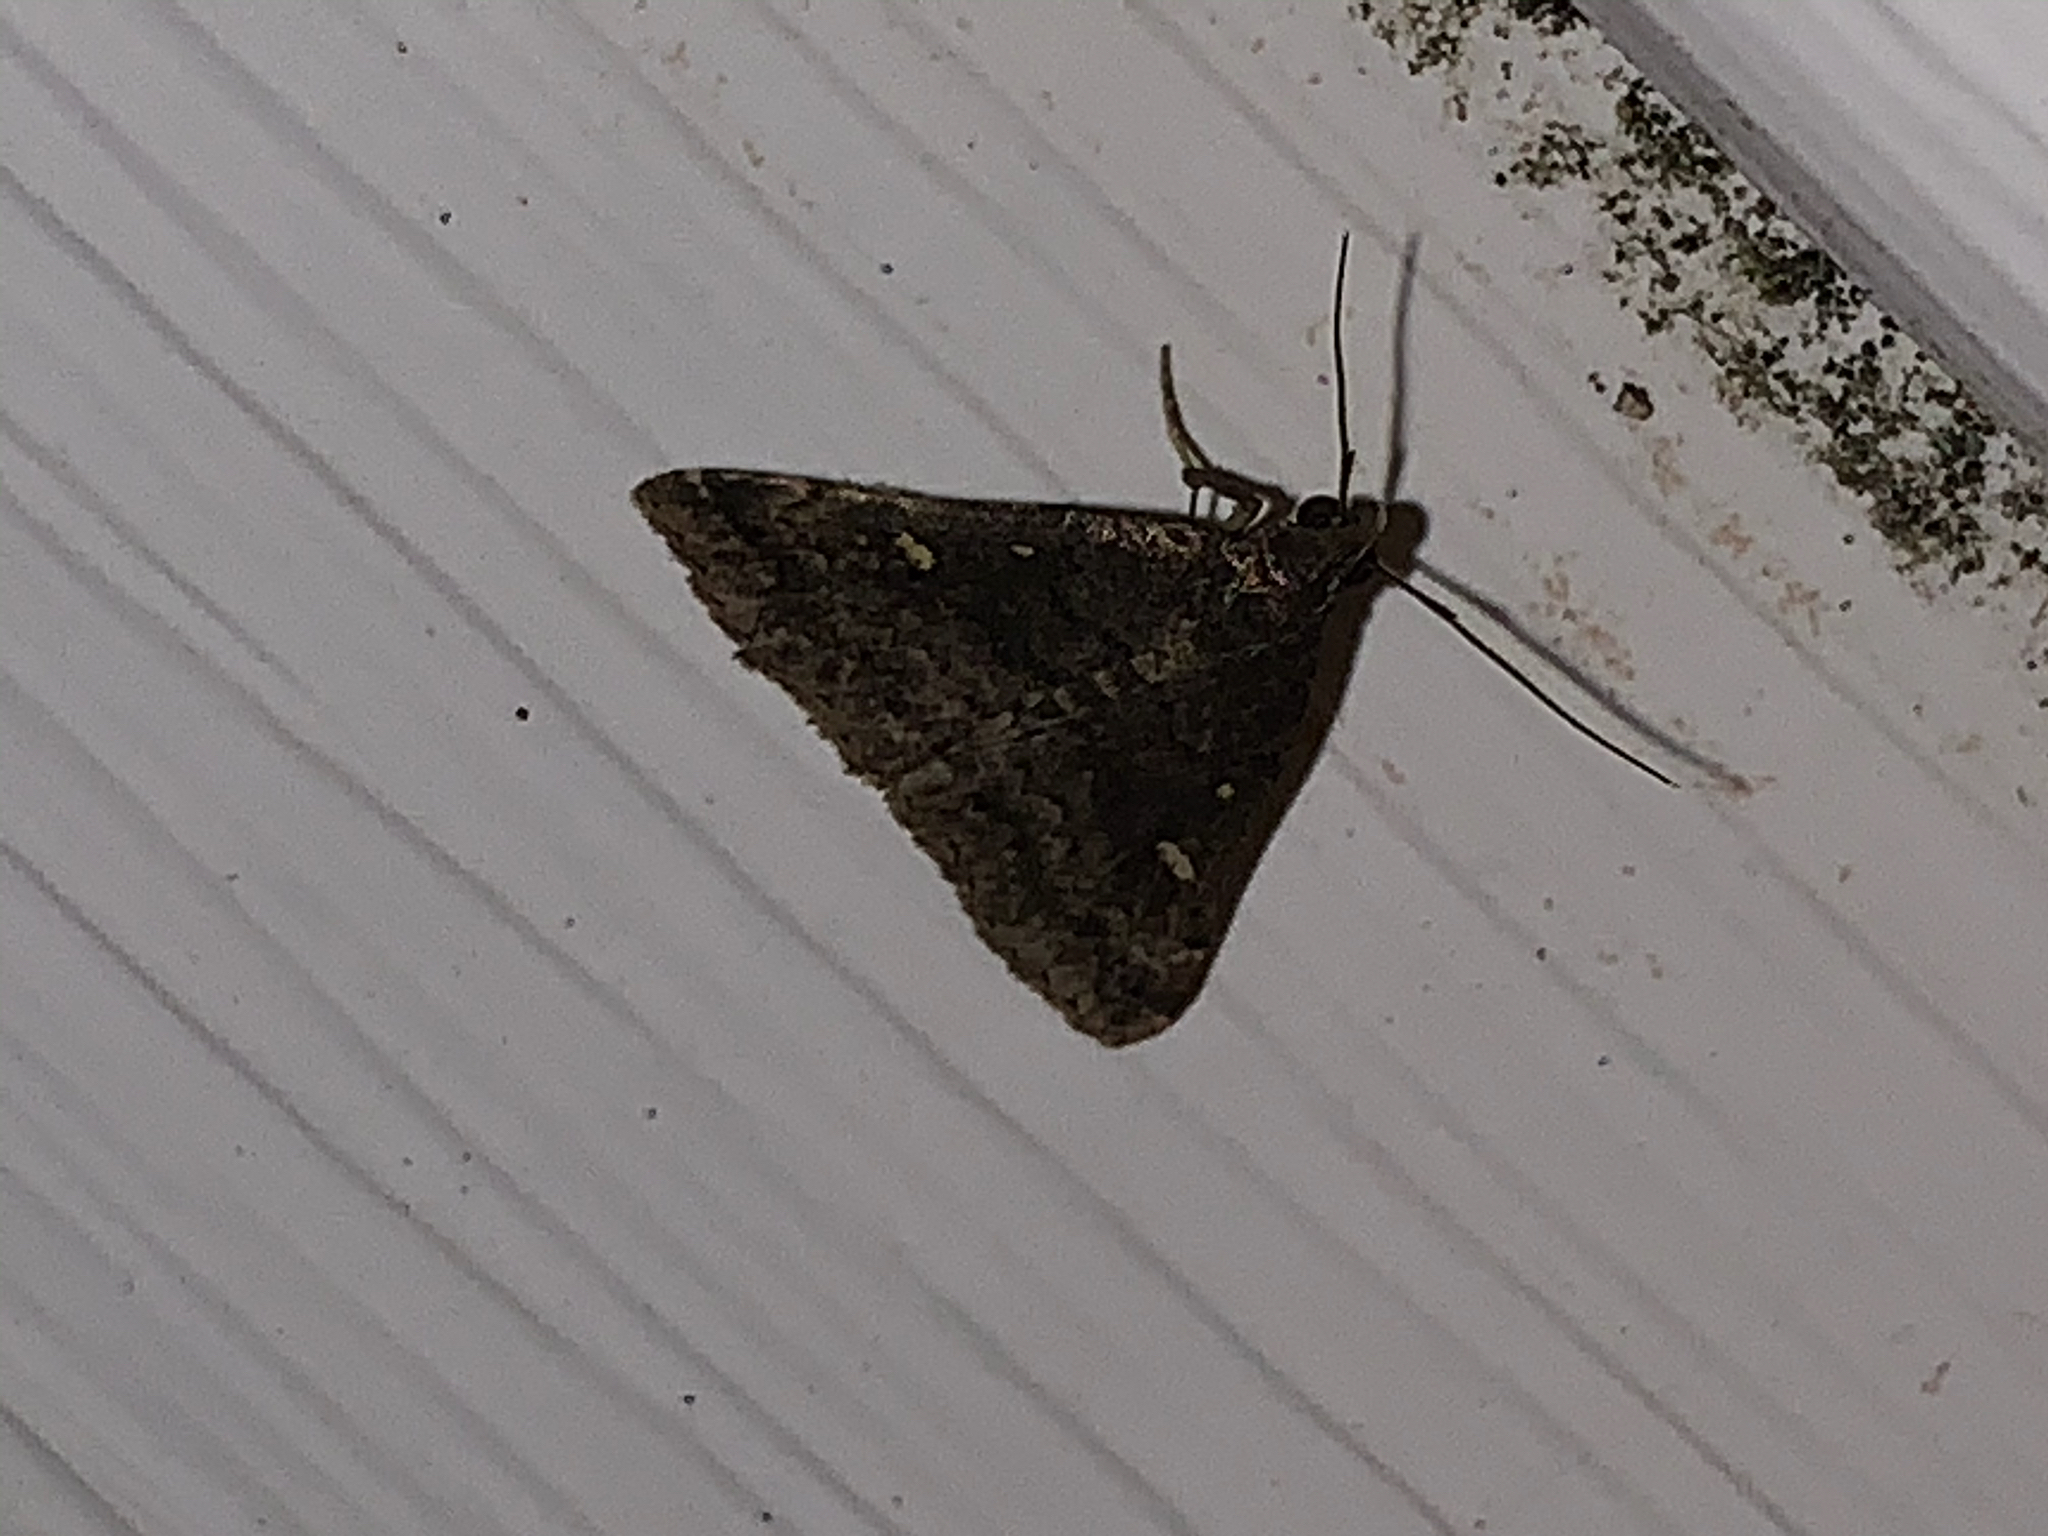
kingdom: Animalia
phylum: Arthropoda
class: Insecta
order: Lepidoptera
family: Erebidae
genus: Tetanolita
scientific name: Tetanolita mynesalis
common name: Smoky tetanolita moth
